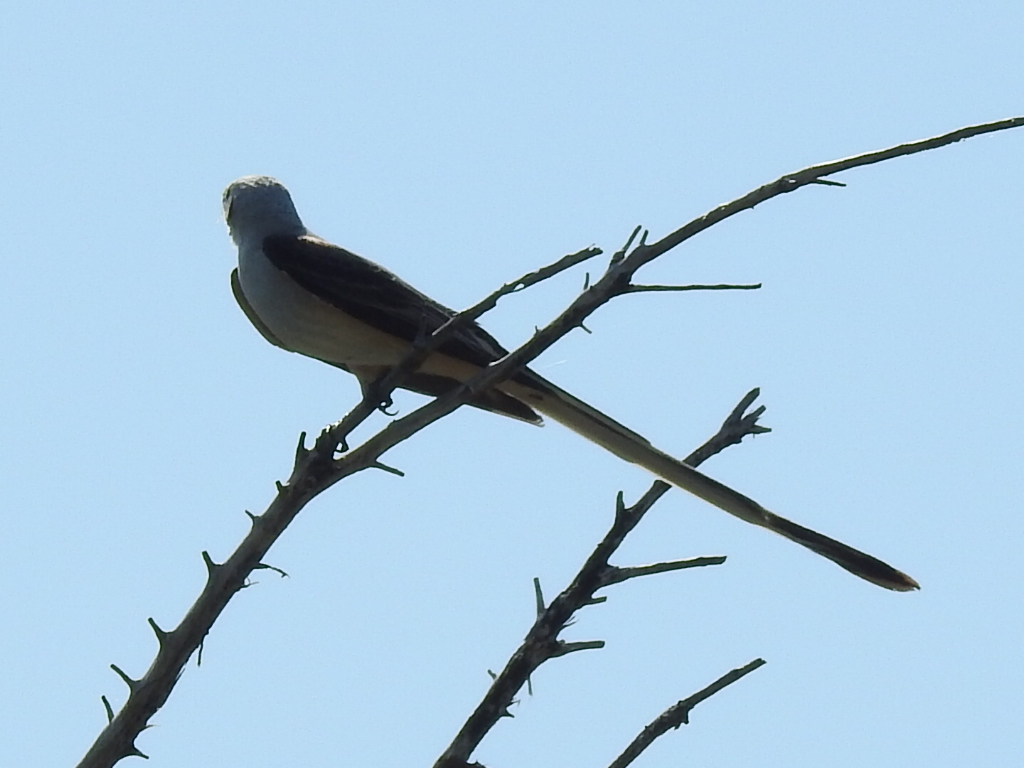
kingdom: Animalia
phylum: Chordata
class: Aves
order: Passeriformes
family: Tyrannidae
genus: Tyrannus
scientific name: Tyrannus forficatus
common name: Scissor-tailed flycatcher
